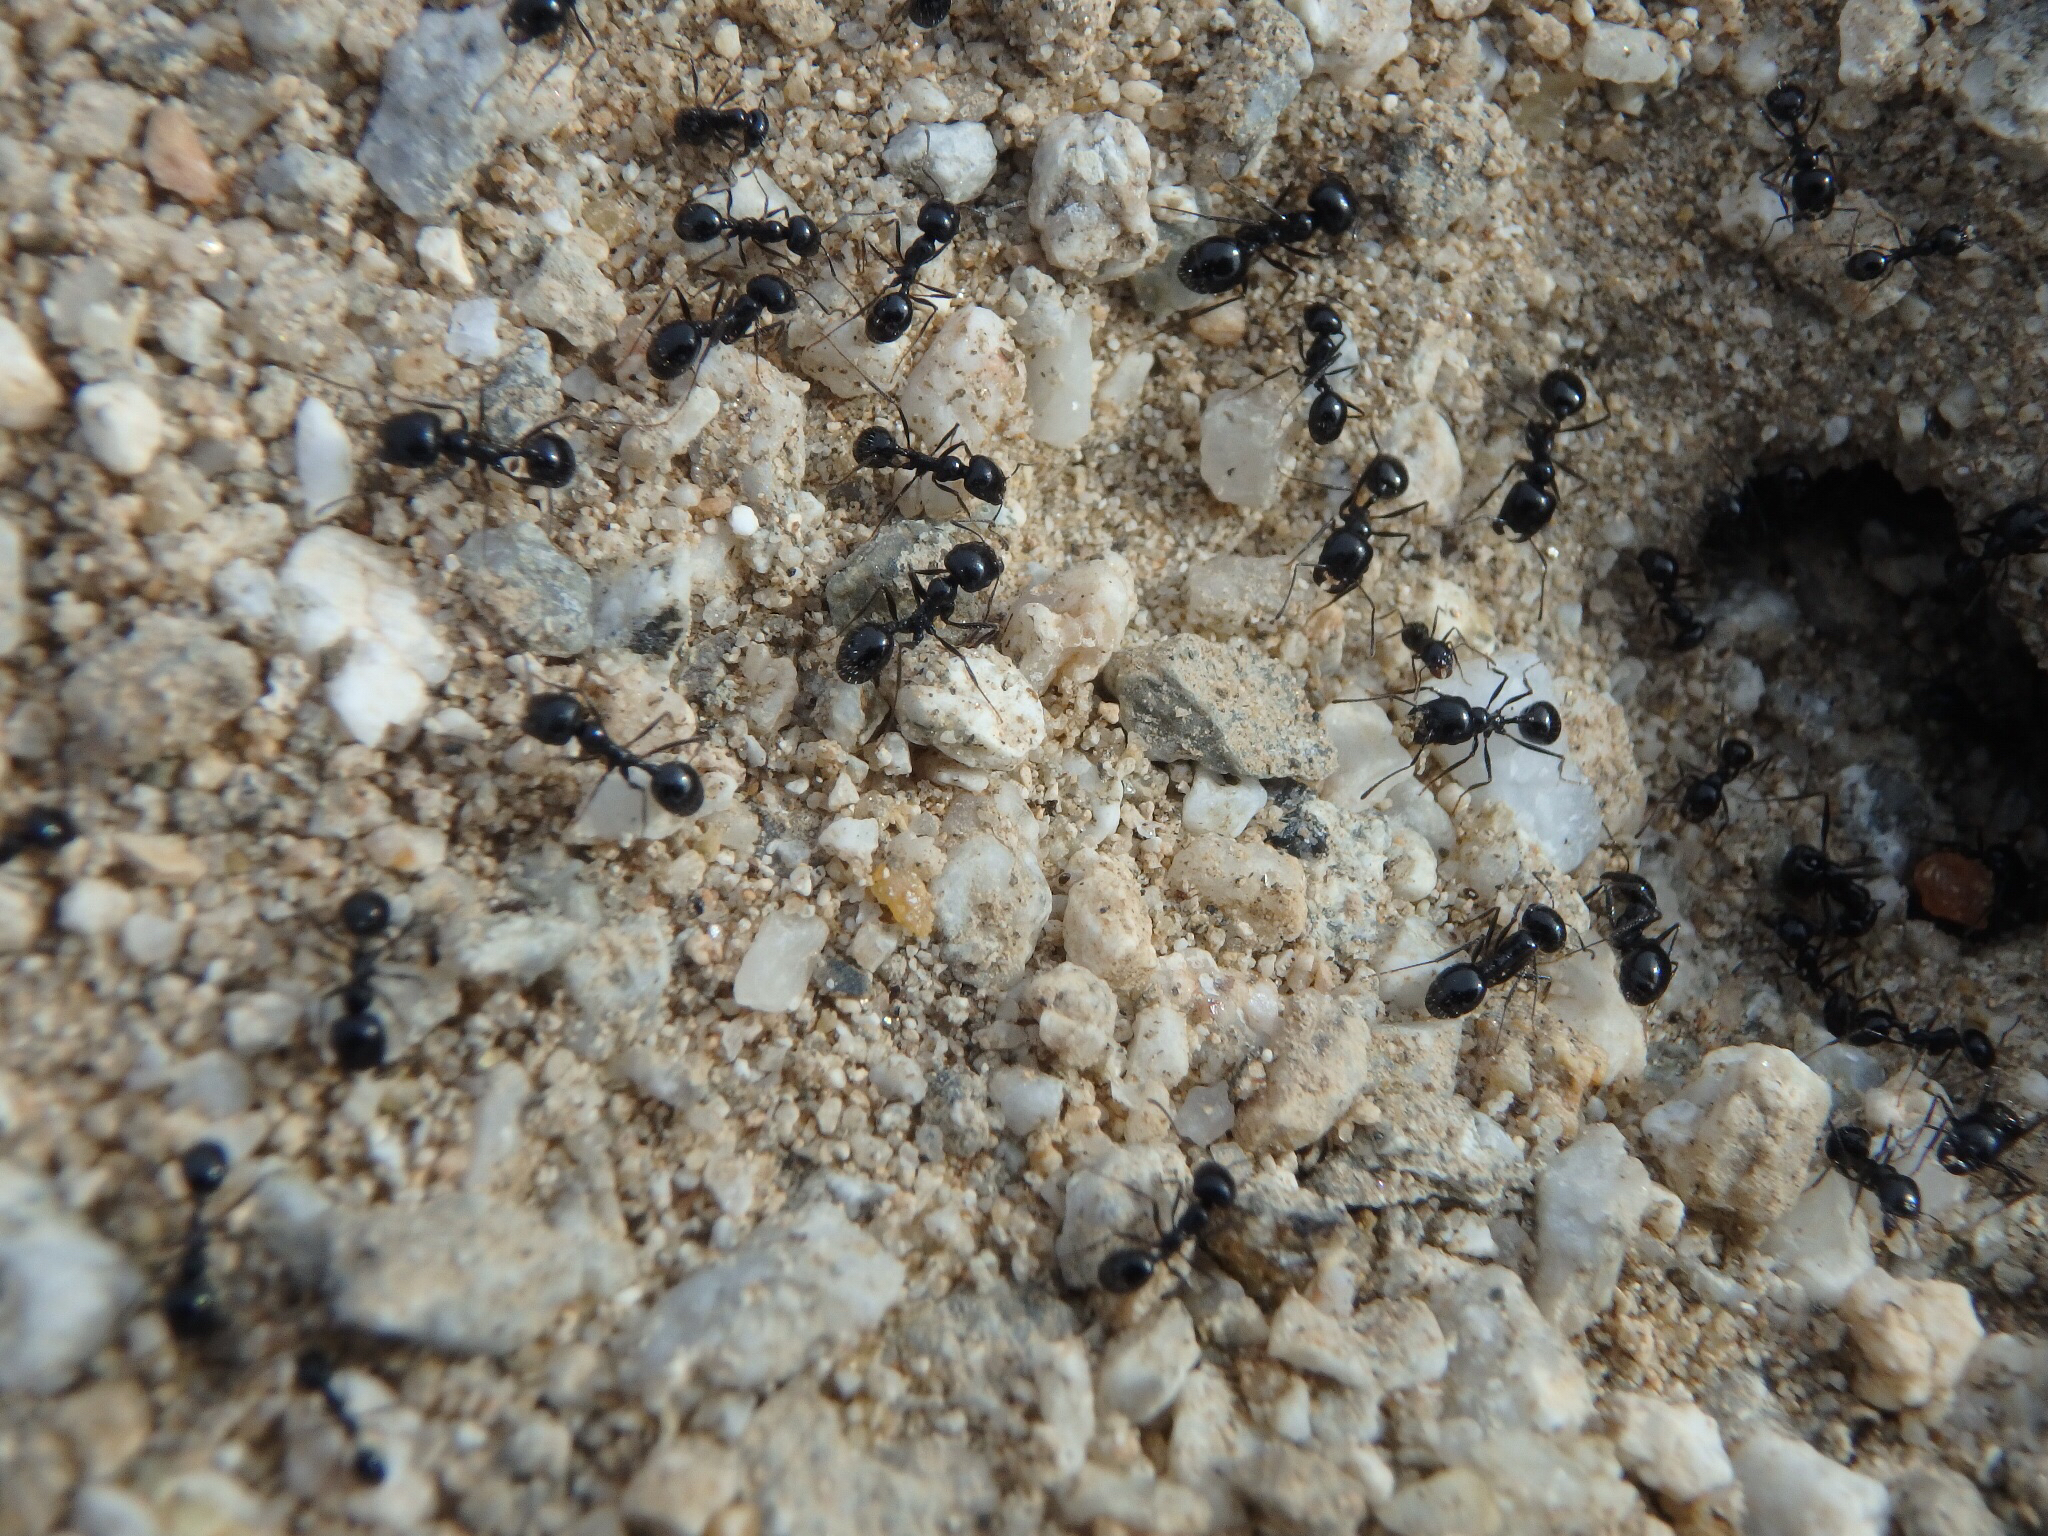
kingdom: Animalia
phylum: Arthropoda
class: Insecta
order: Hymenoptera
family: Formicidae
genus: Messor
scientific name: Messor pergandei
